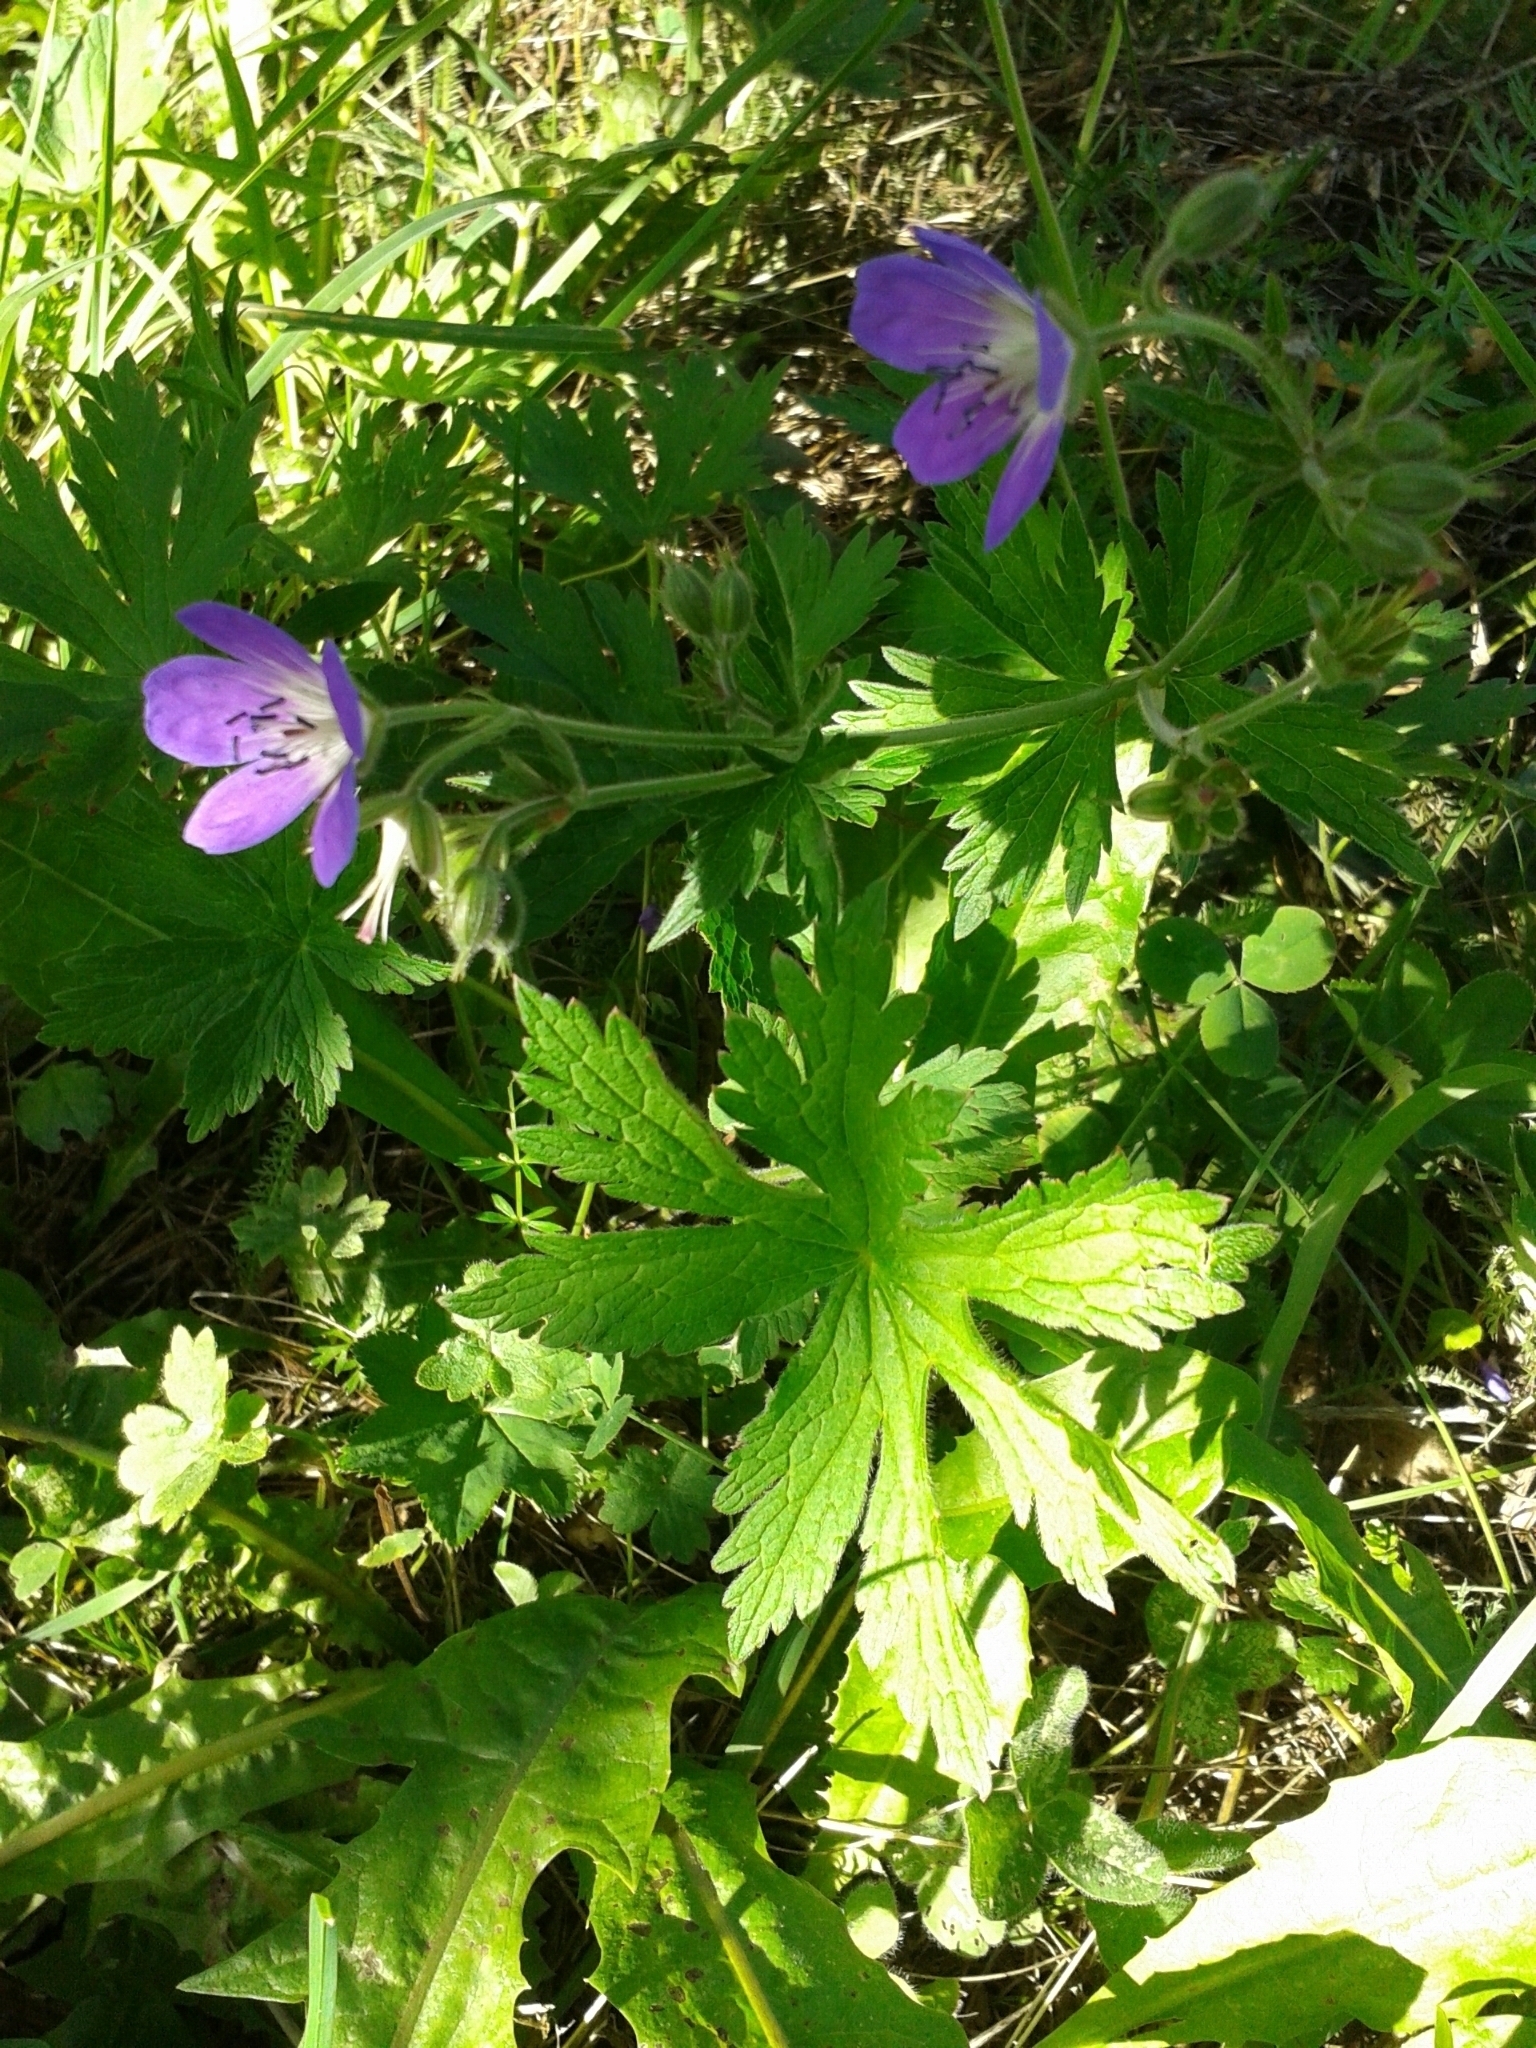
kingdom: Plantae
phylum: Tracheophyta
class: Magnoliopsida
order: Geraniales
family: Geraniaceae
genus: Geranium
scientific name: Geranium sylvaticum
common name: Wood crane's-bill
